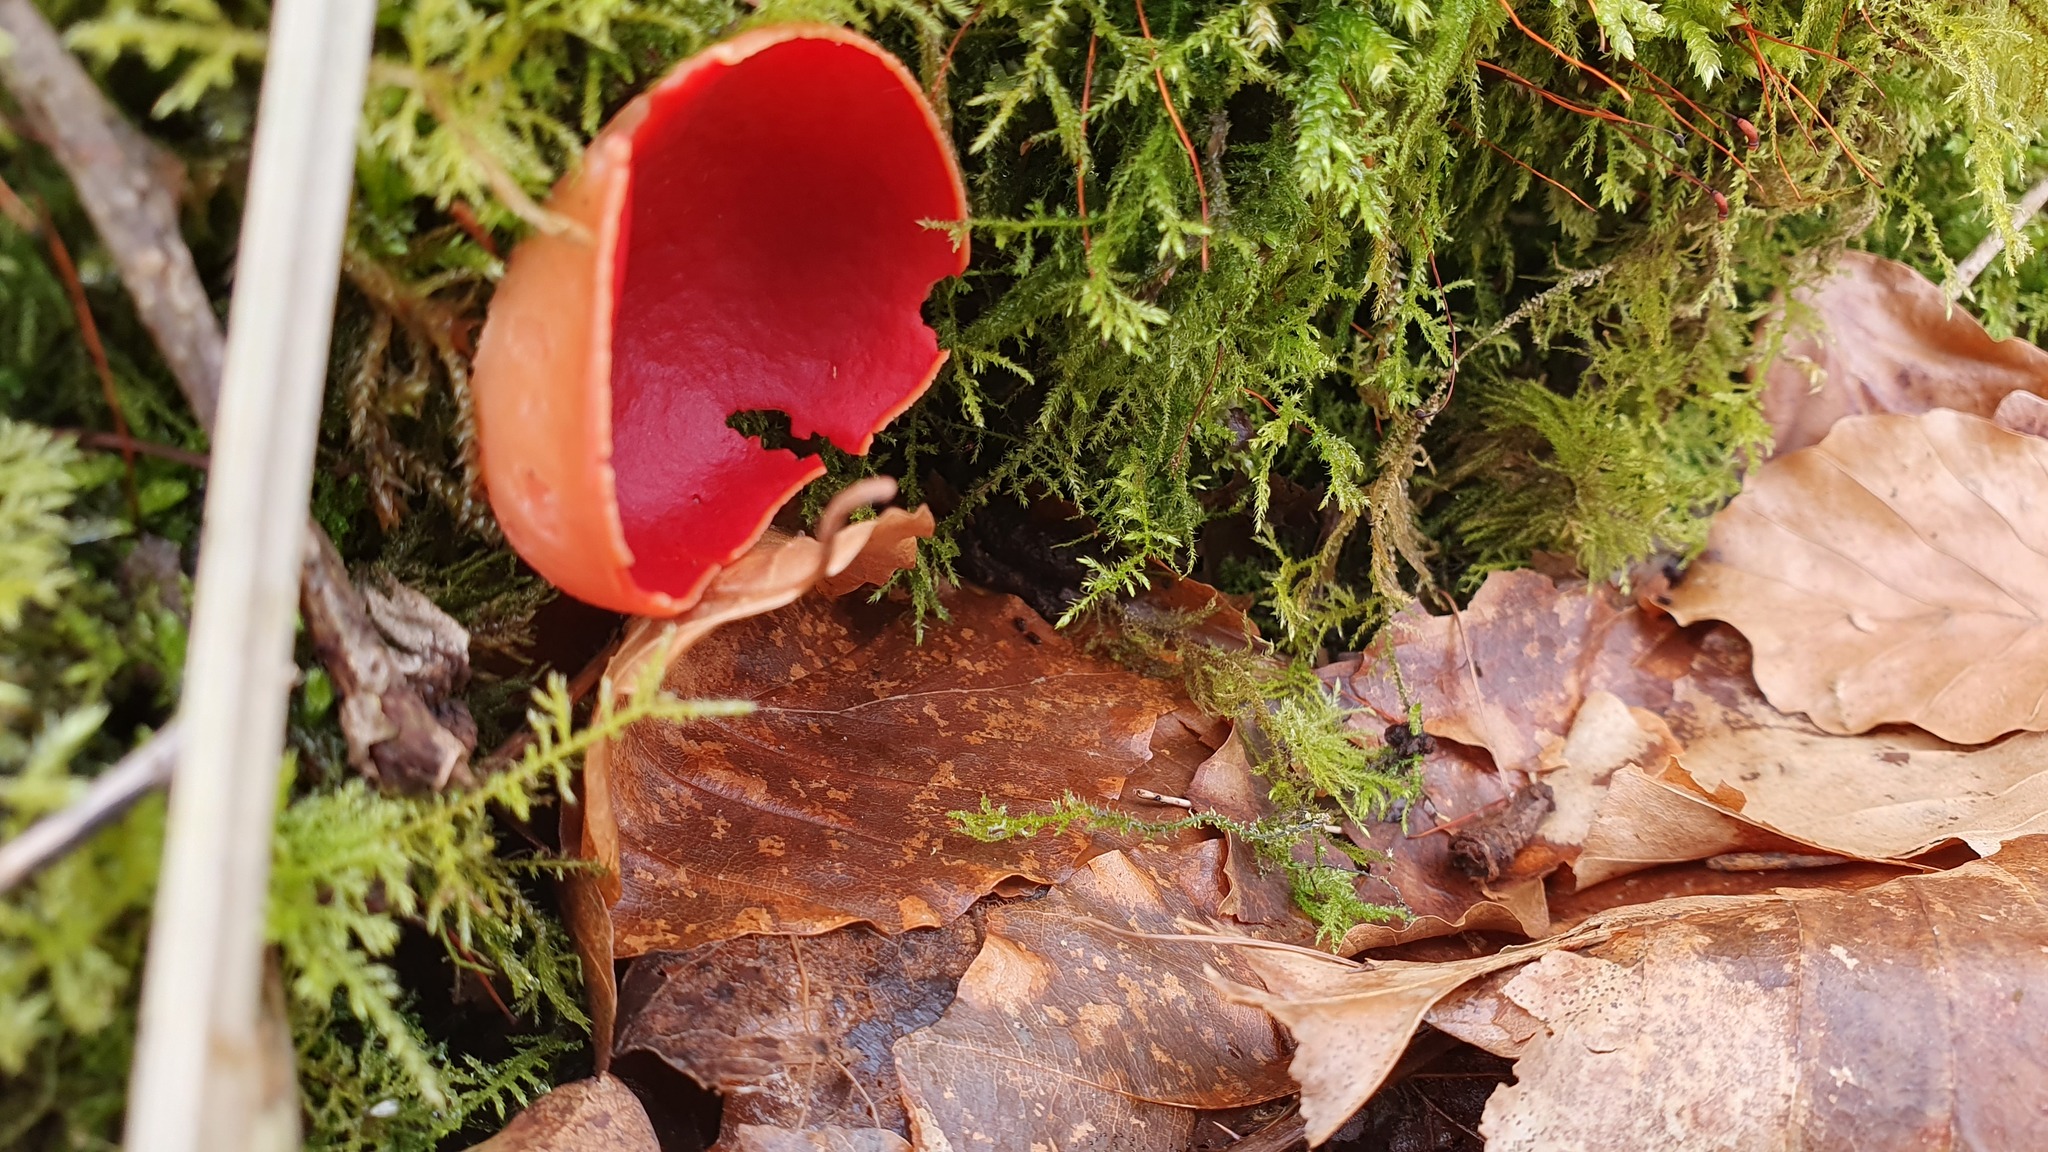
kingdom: Fungi
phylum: Ascomycota
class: Pezizomycetes
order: Pezizales
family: Sarcoscyphaceae
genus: Sarcoscypha
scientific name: Sarcoscypha
